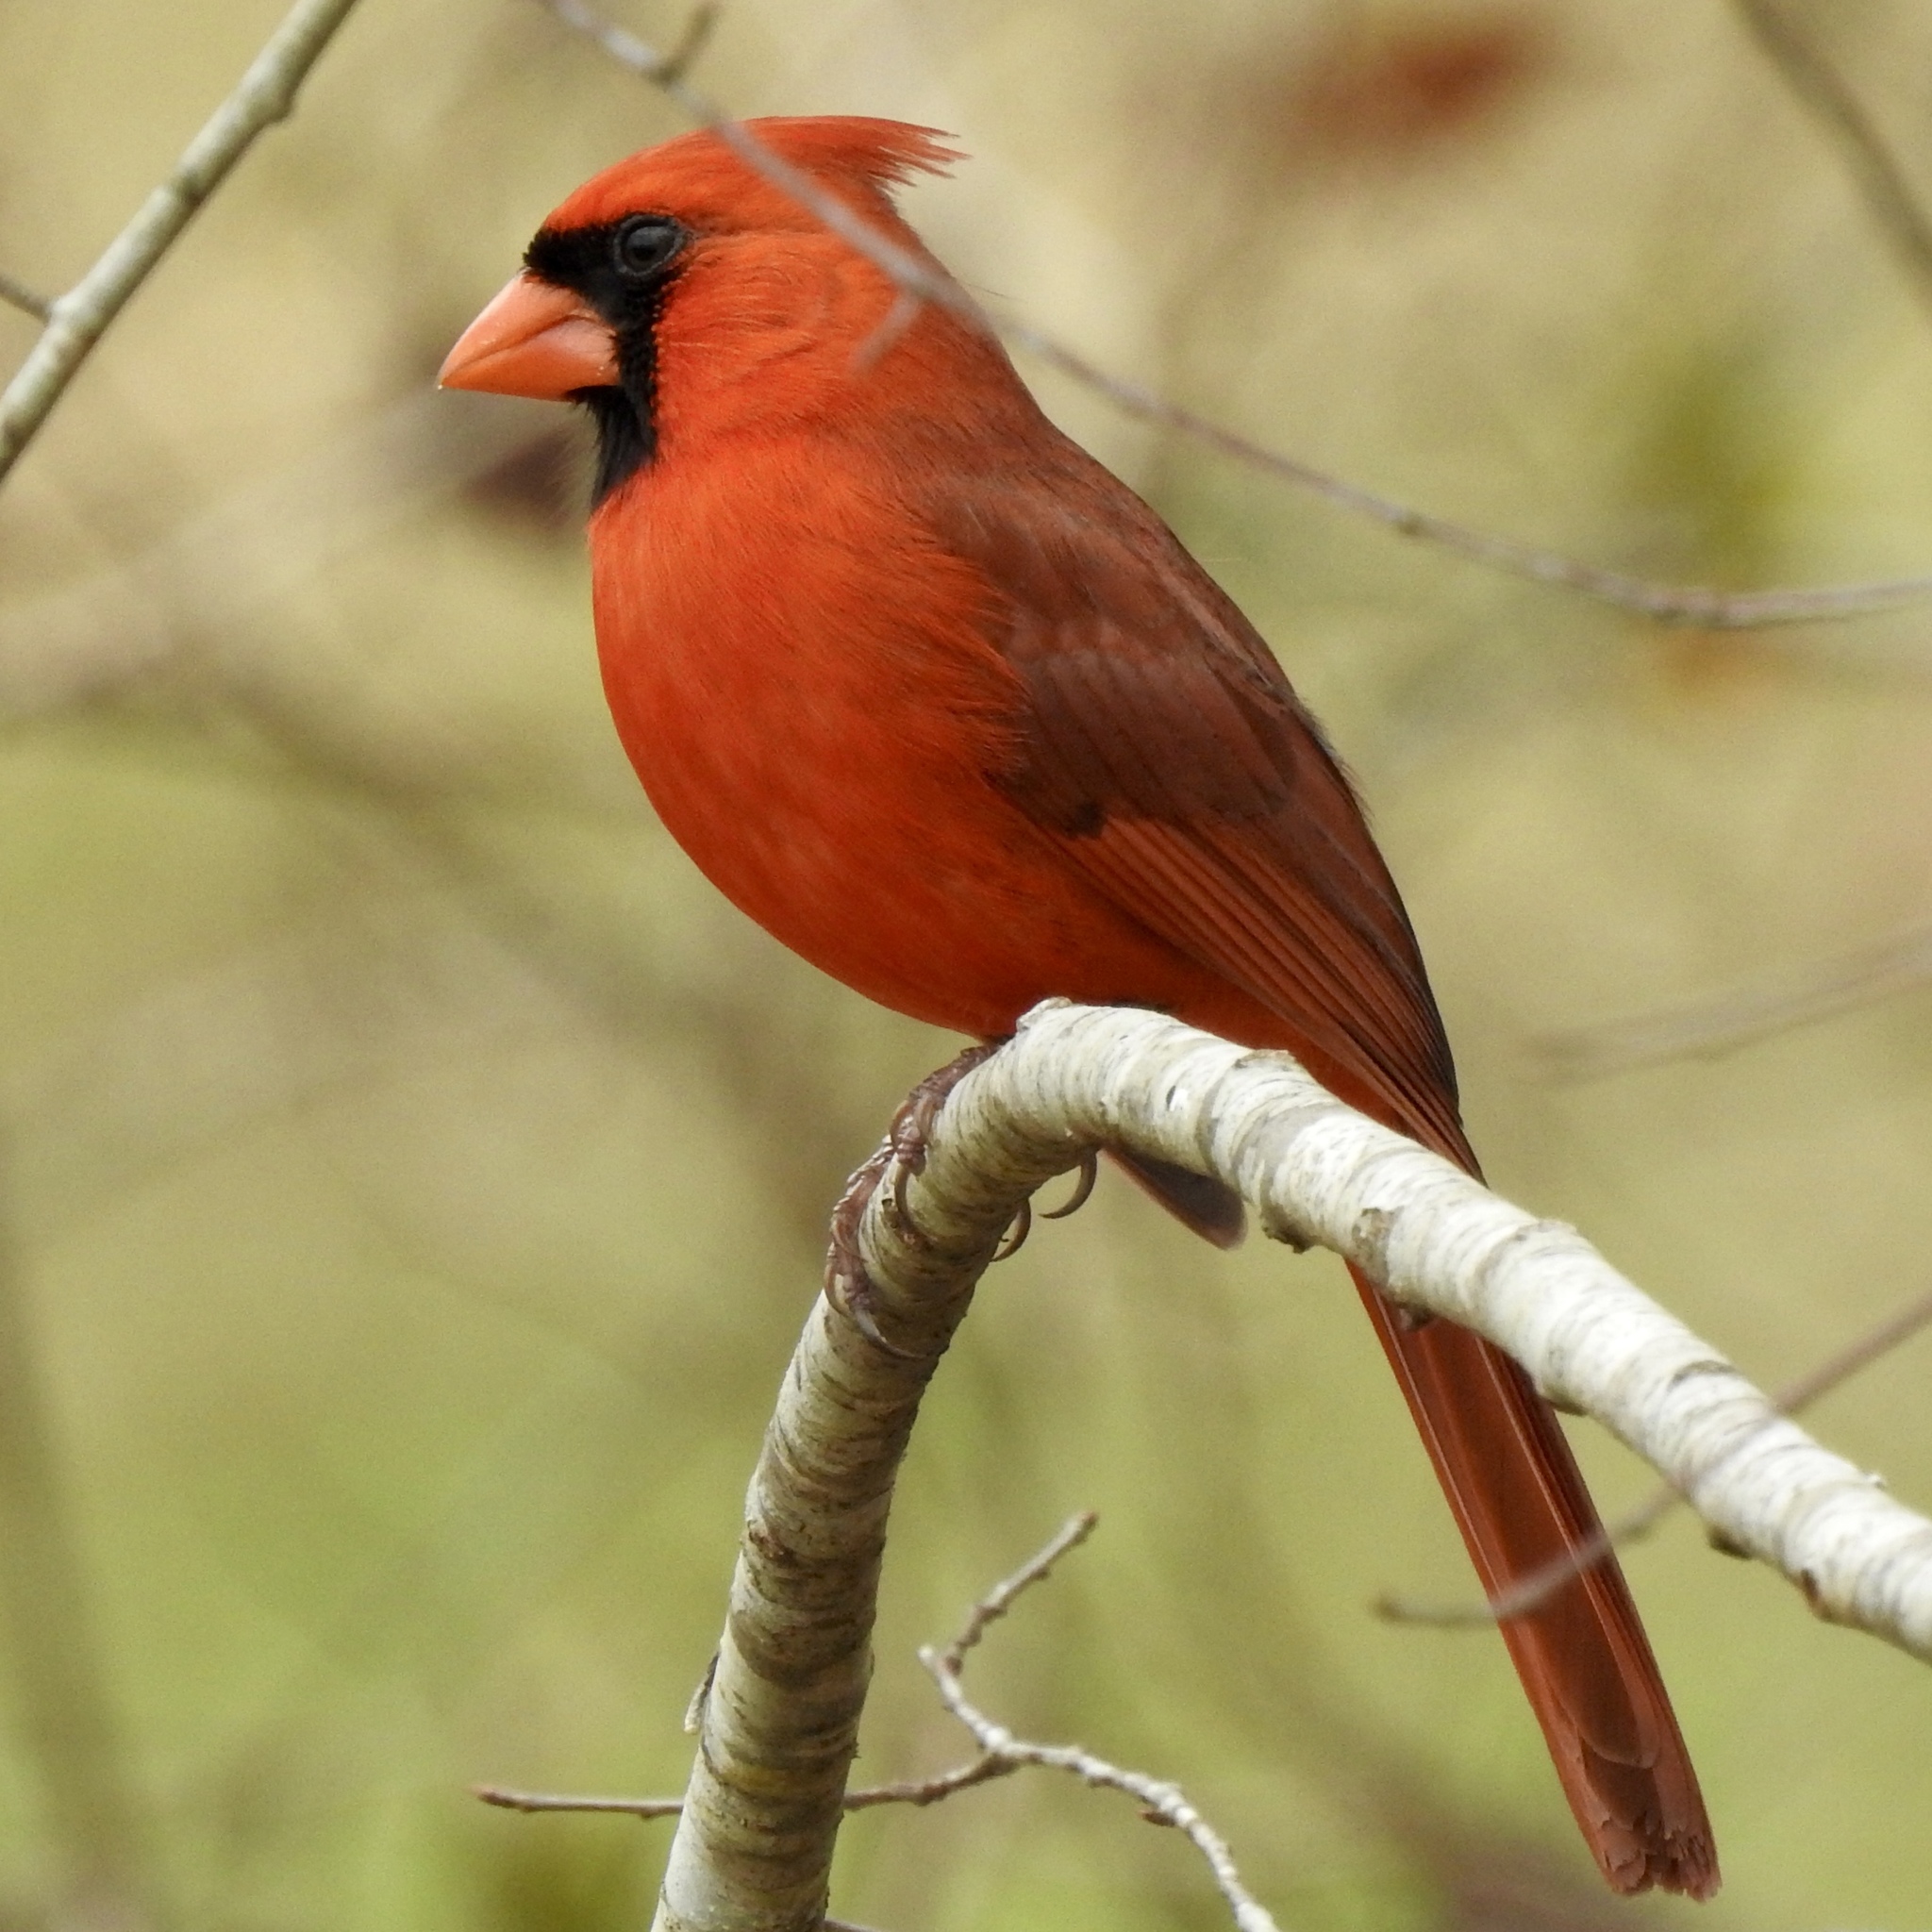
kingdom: Animalia
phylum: Chordata
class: Aves
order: Passeriformes
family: Cardinalidae
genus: Cardinalis
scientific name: Cardinalis cardinalis
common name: Northern cardinal
